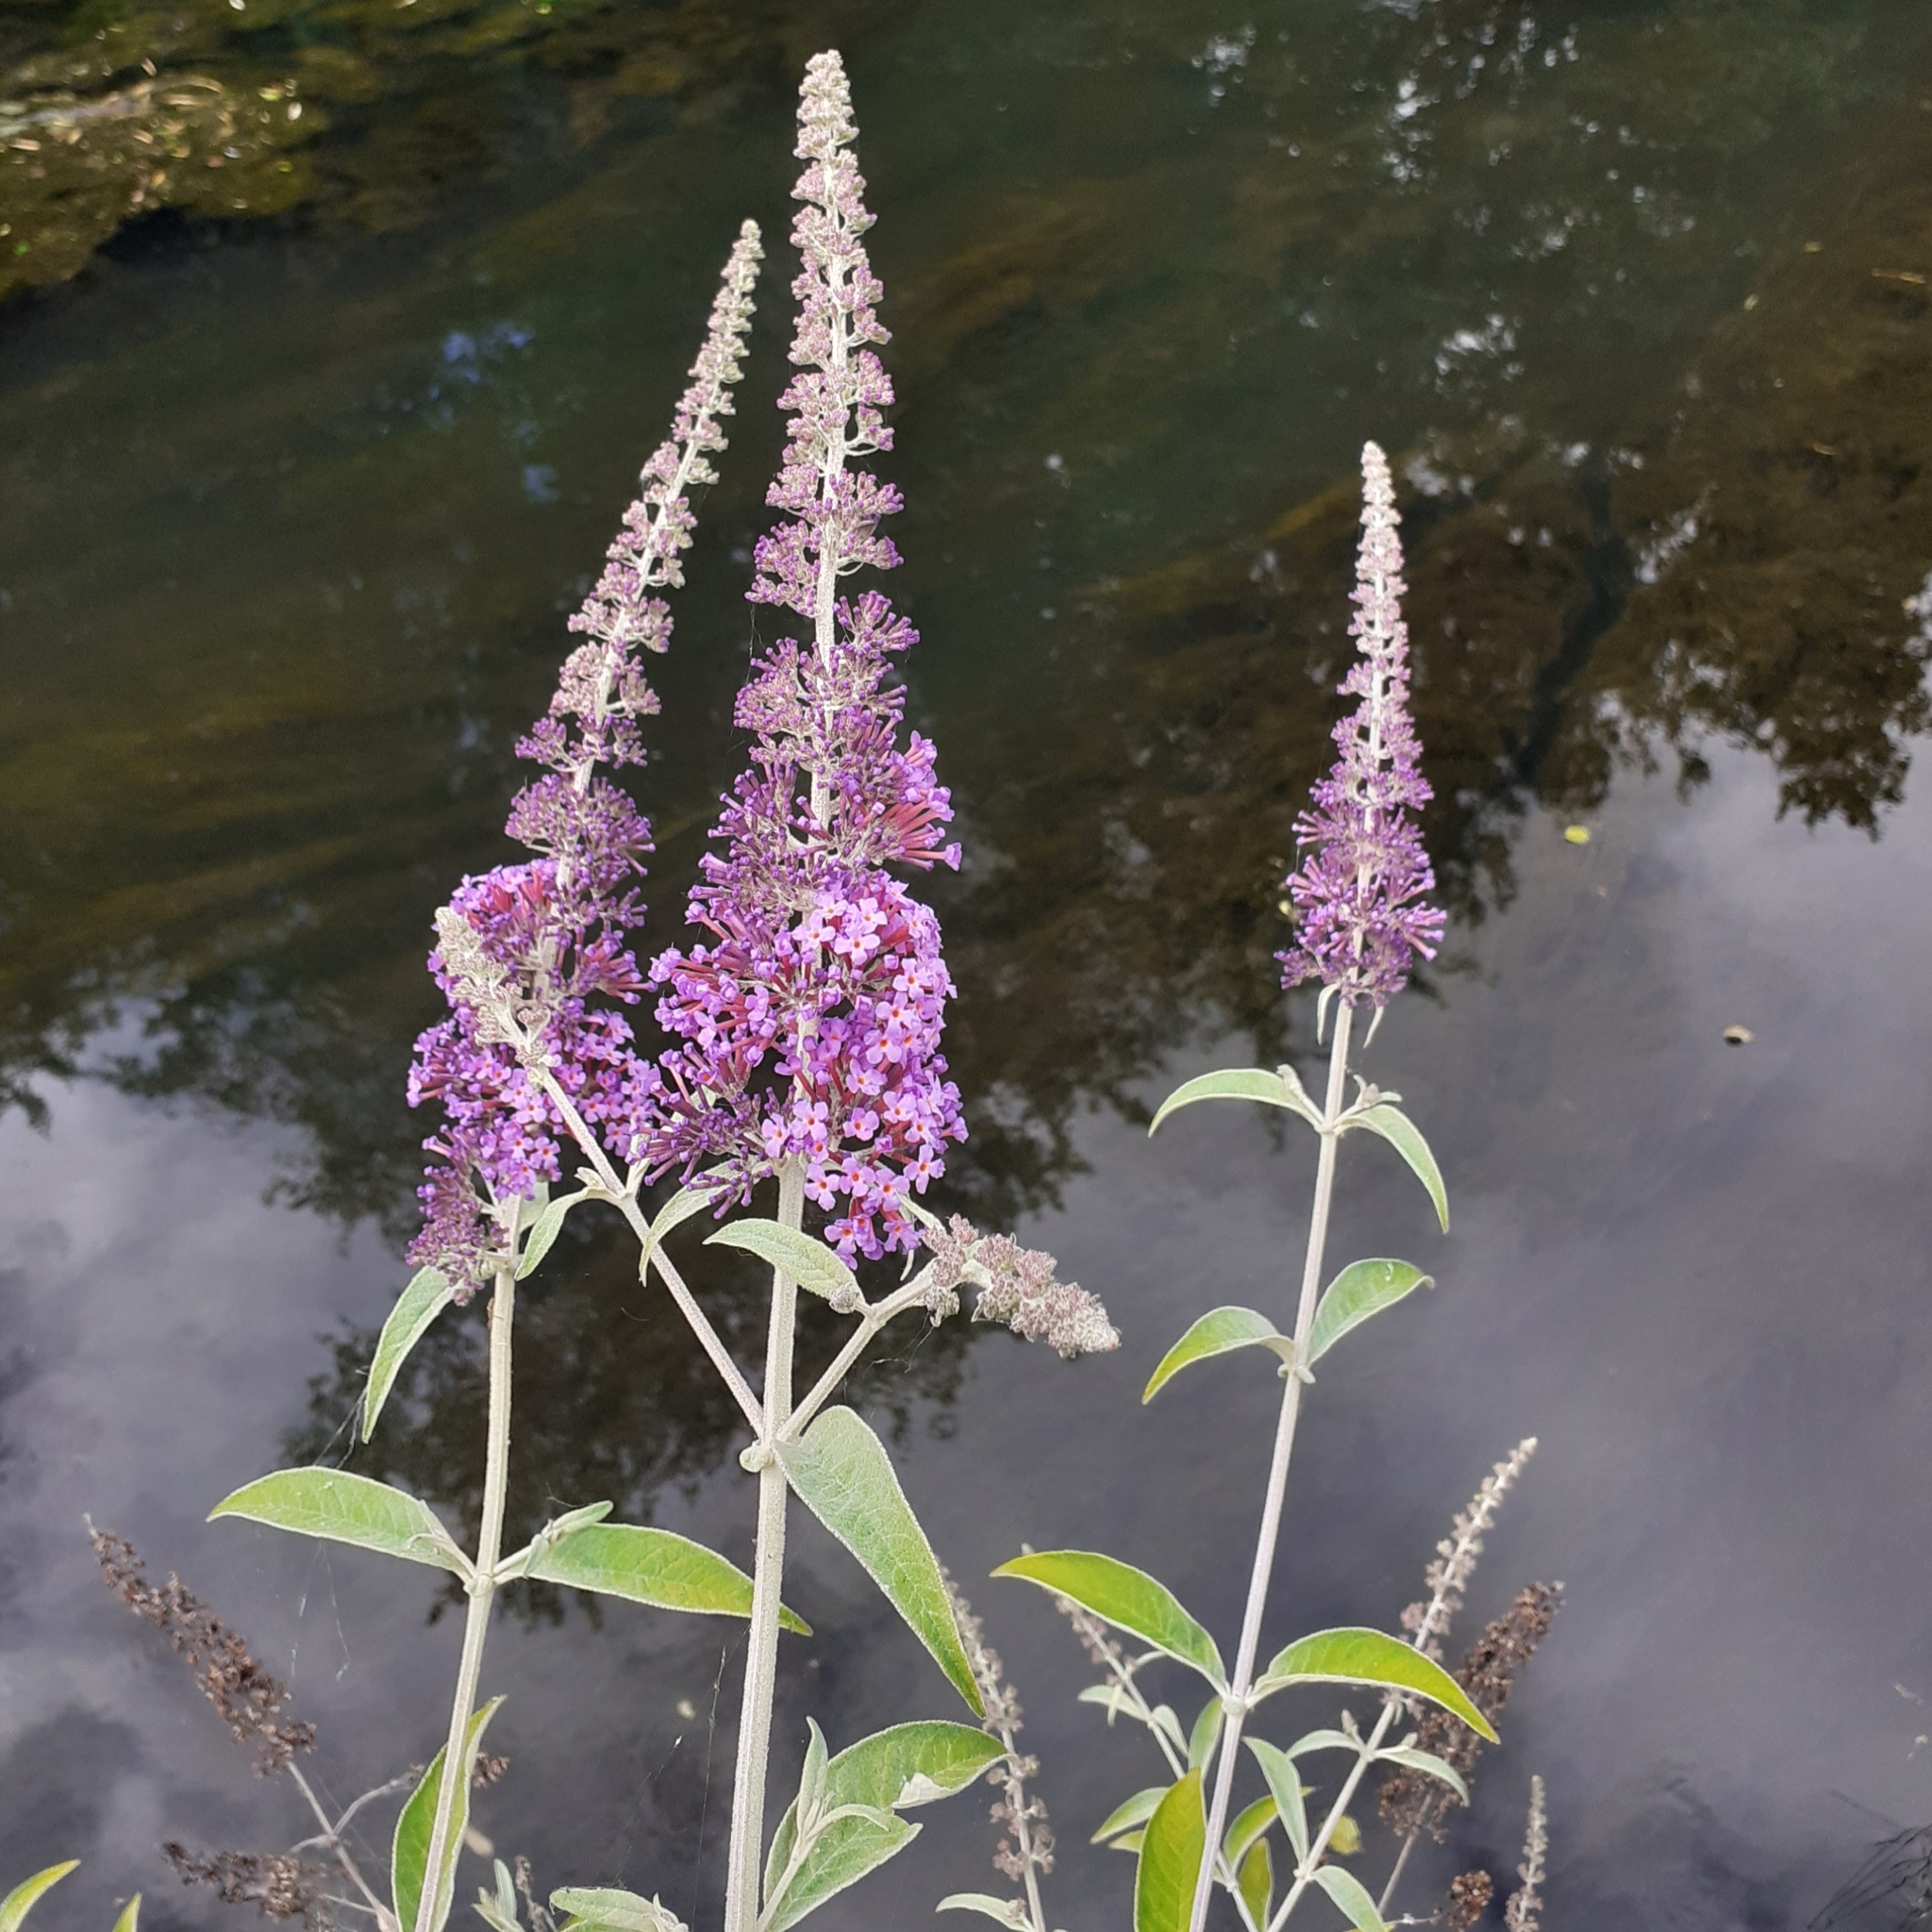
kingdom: Plantae
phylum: Tracheophyta
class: Magnoliopsida
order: Lamiales
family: Scrophulariaceae
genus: Buddleja
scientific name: Buddleja davidii
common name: Butterfly-bush
